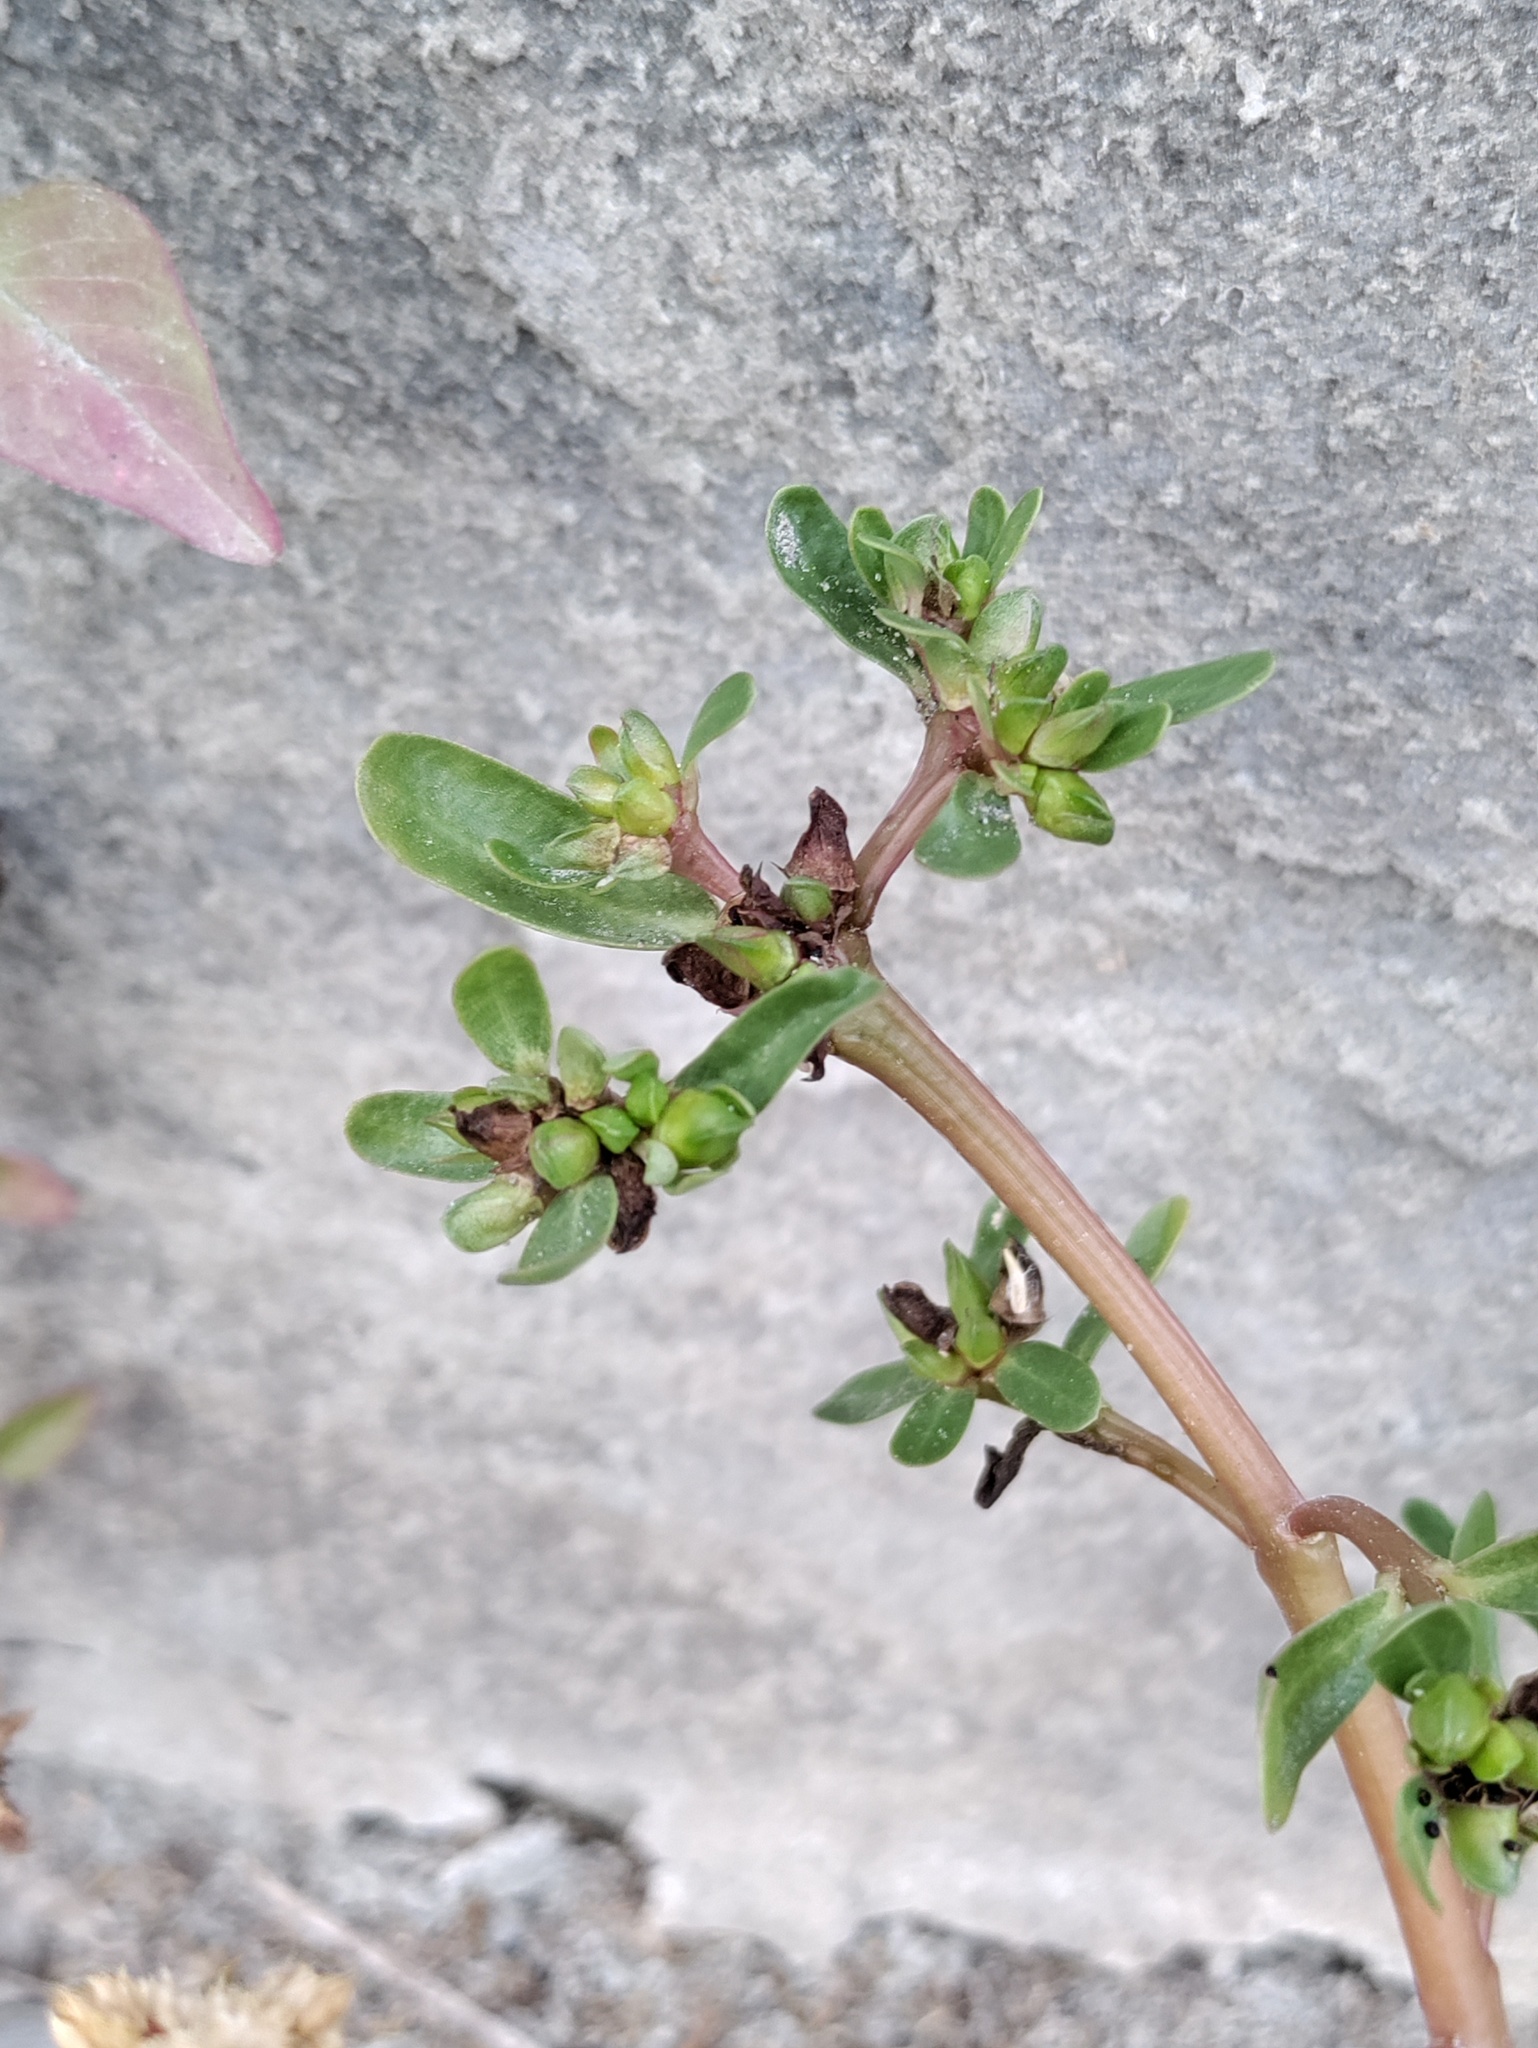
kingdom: Plantae
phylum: Tracheophyta
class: Magnoliopsida
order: Caryophyllales
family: Portulacaceae
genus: Portulaca
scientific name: Portulaca oleracea
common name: Common purslane
